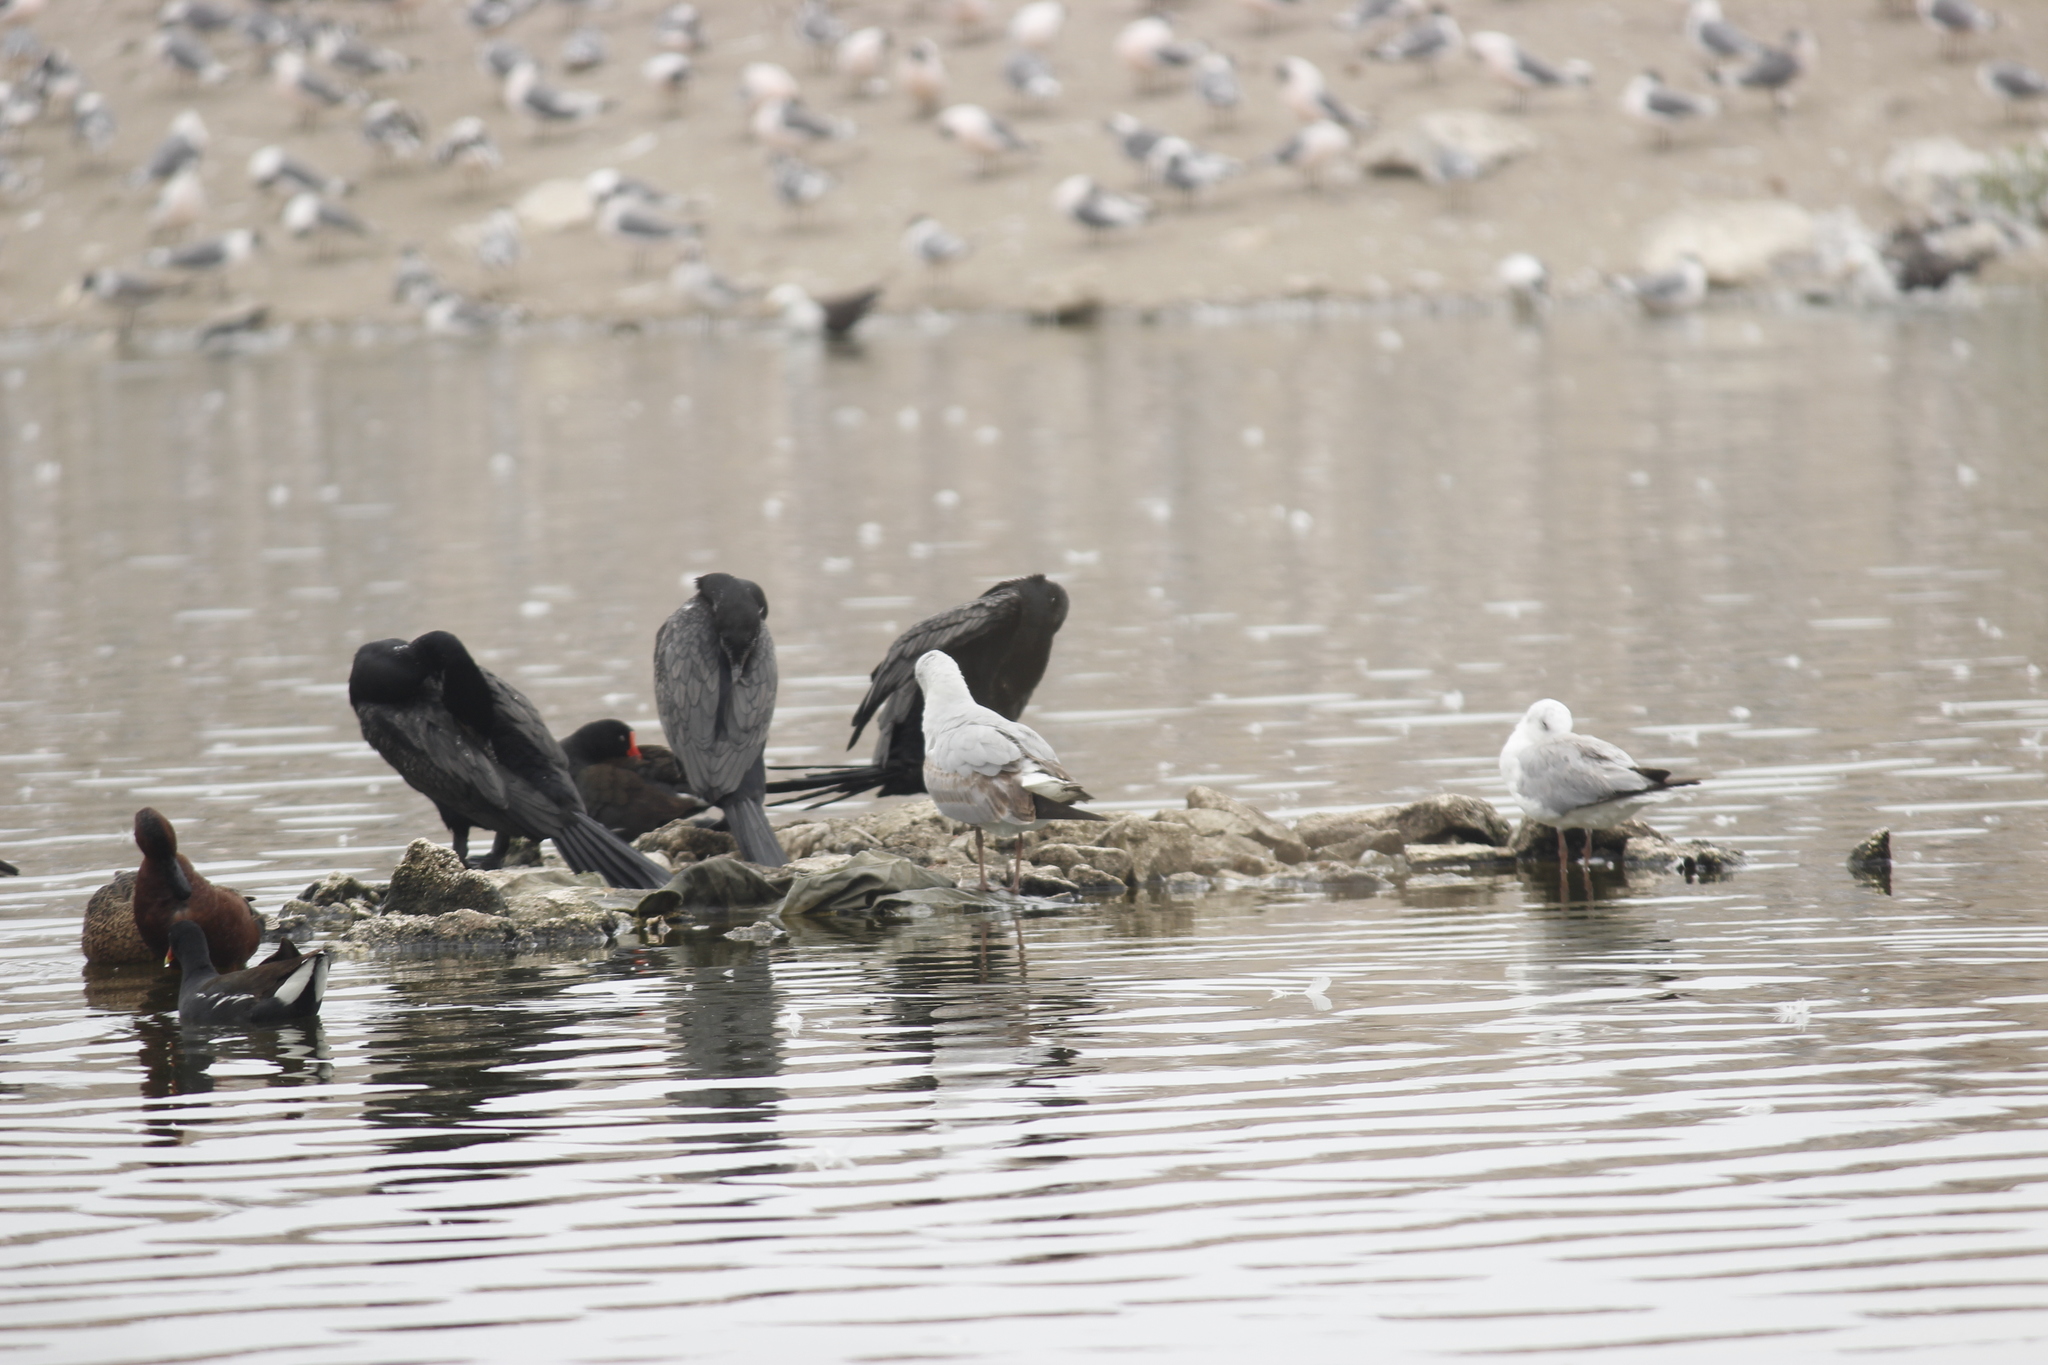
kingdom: Animalia
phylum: Chordata
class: Aves
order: Suliformes
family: Phalacrocoracidae
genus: Phalacrocorax
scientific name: Phalacrocorax brasilianus
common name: Neotropic cormorant
